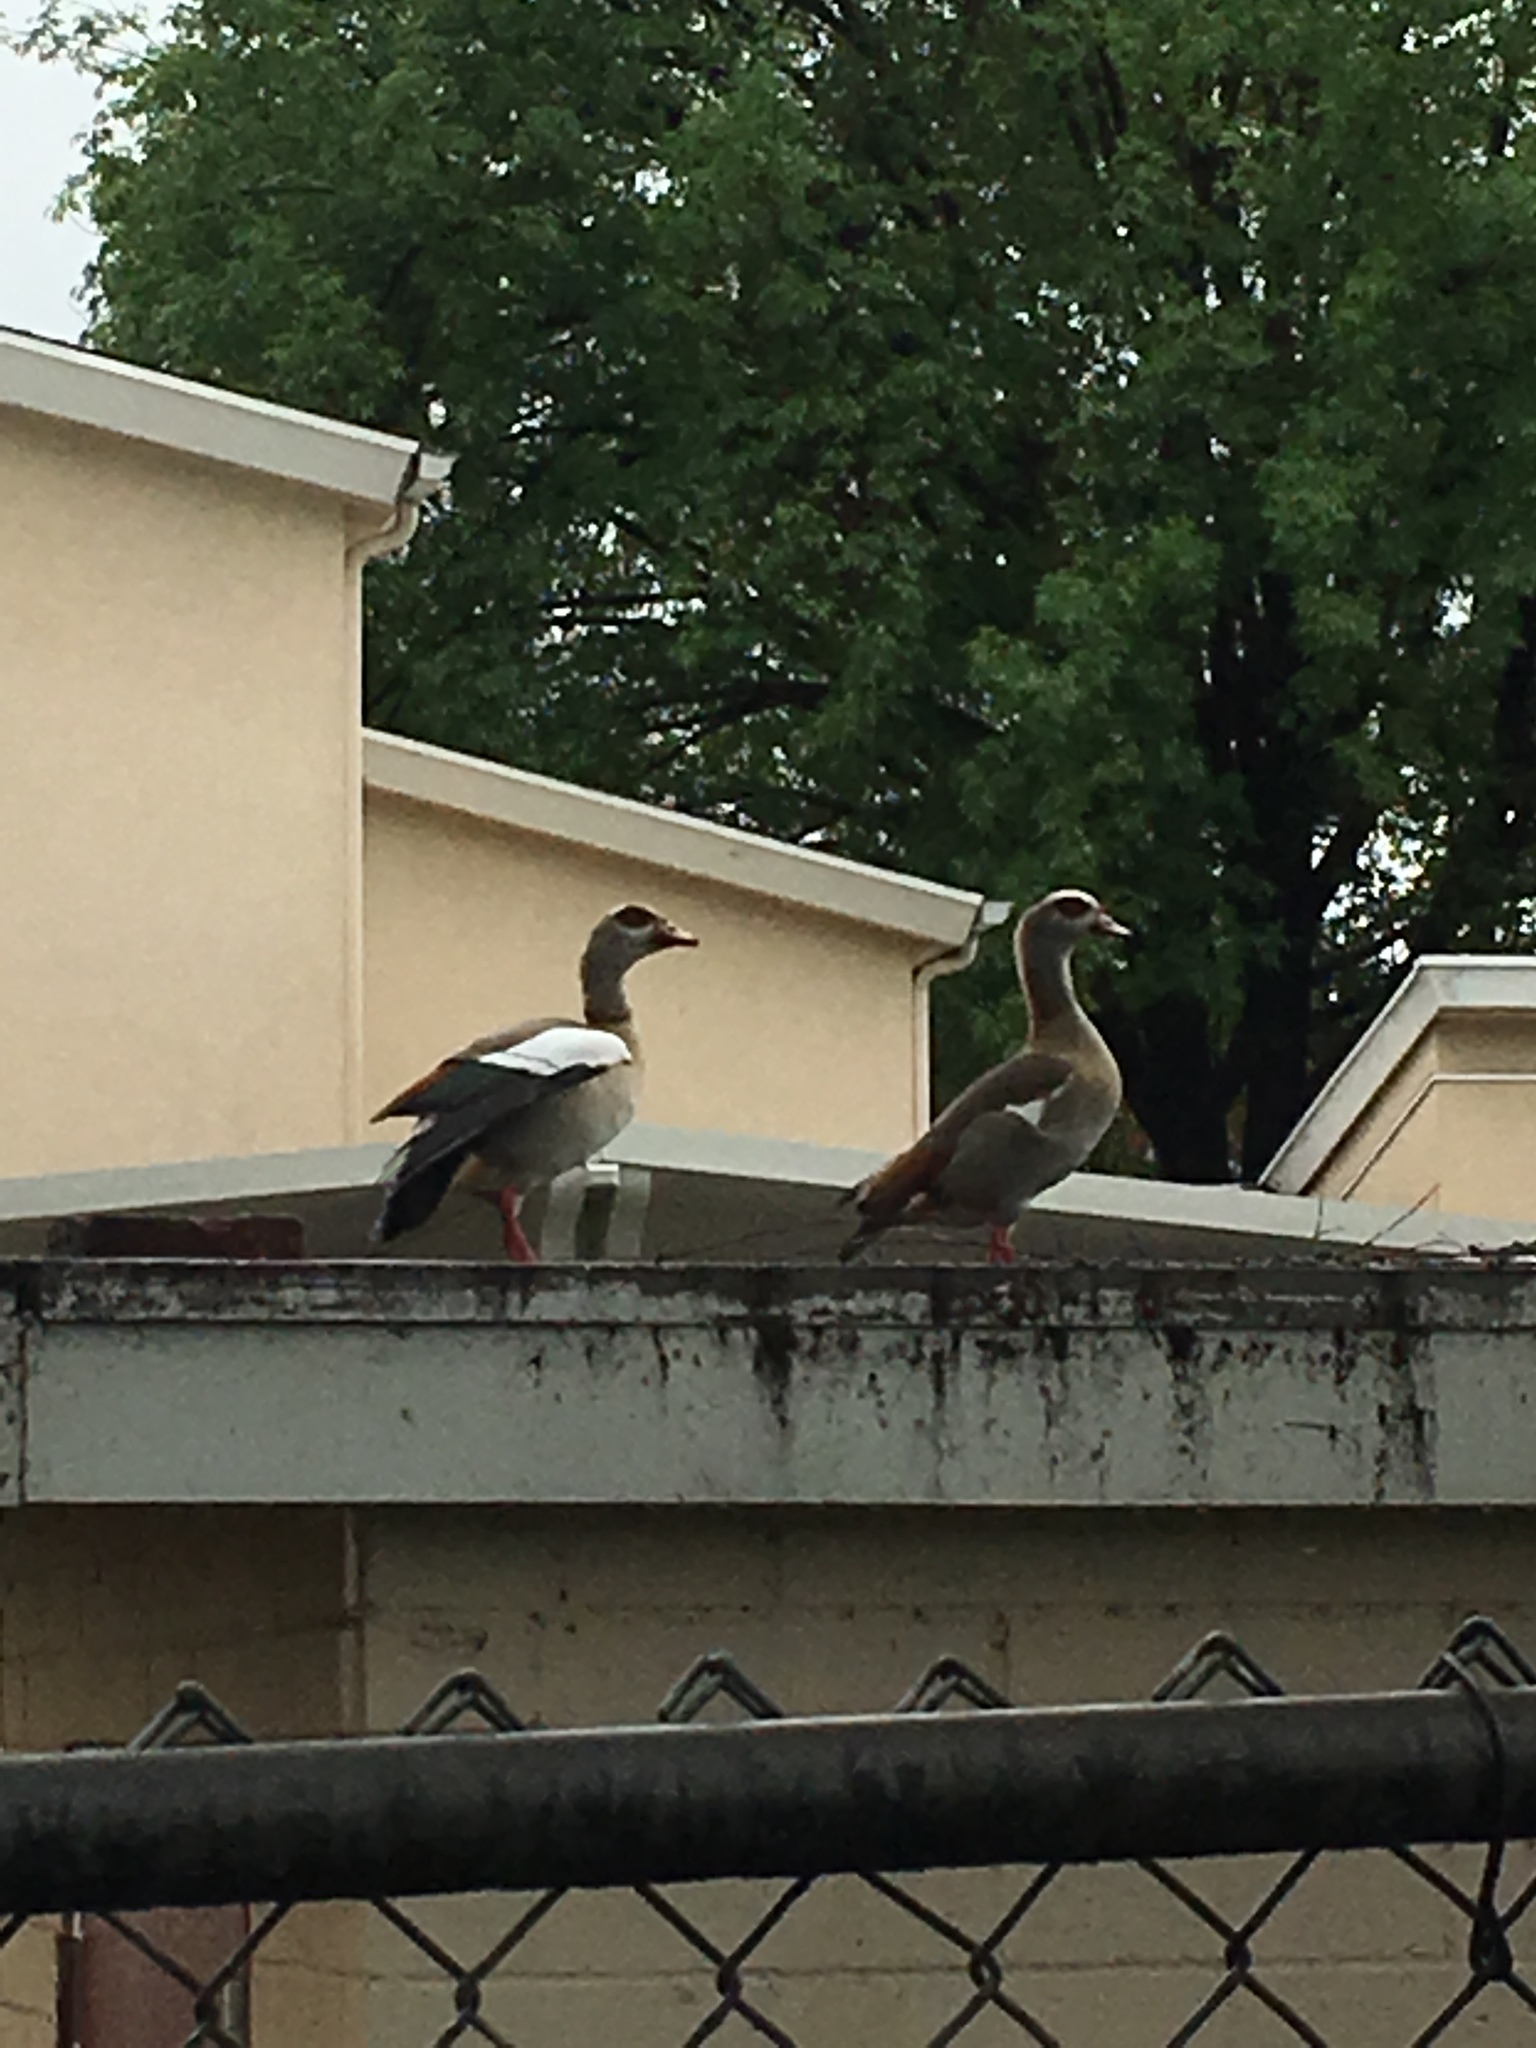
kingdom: Animalia
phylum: Chordata
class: Aves
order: Anseriformes
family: Anatidae
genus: Alopochen
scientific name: Alopochen aegyptiaca
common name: Egyptian goose
